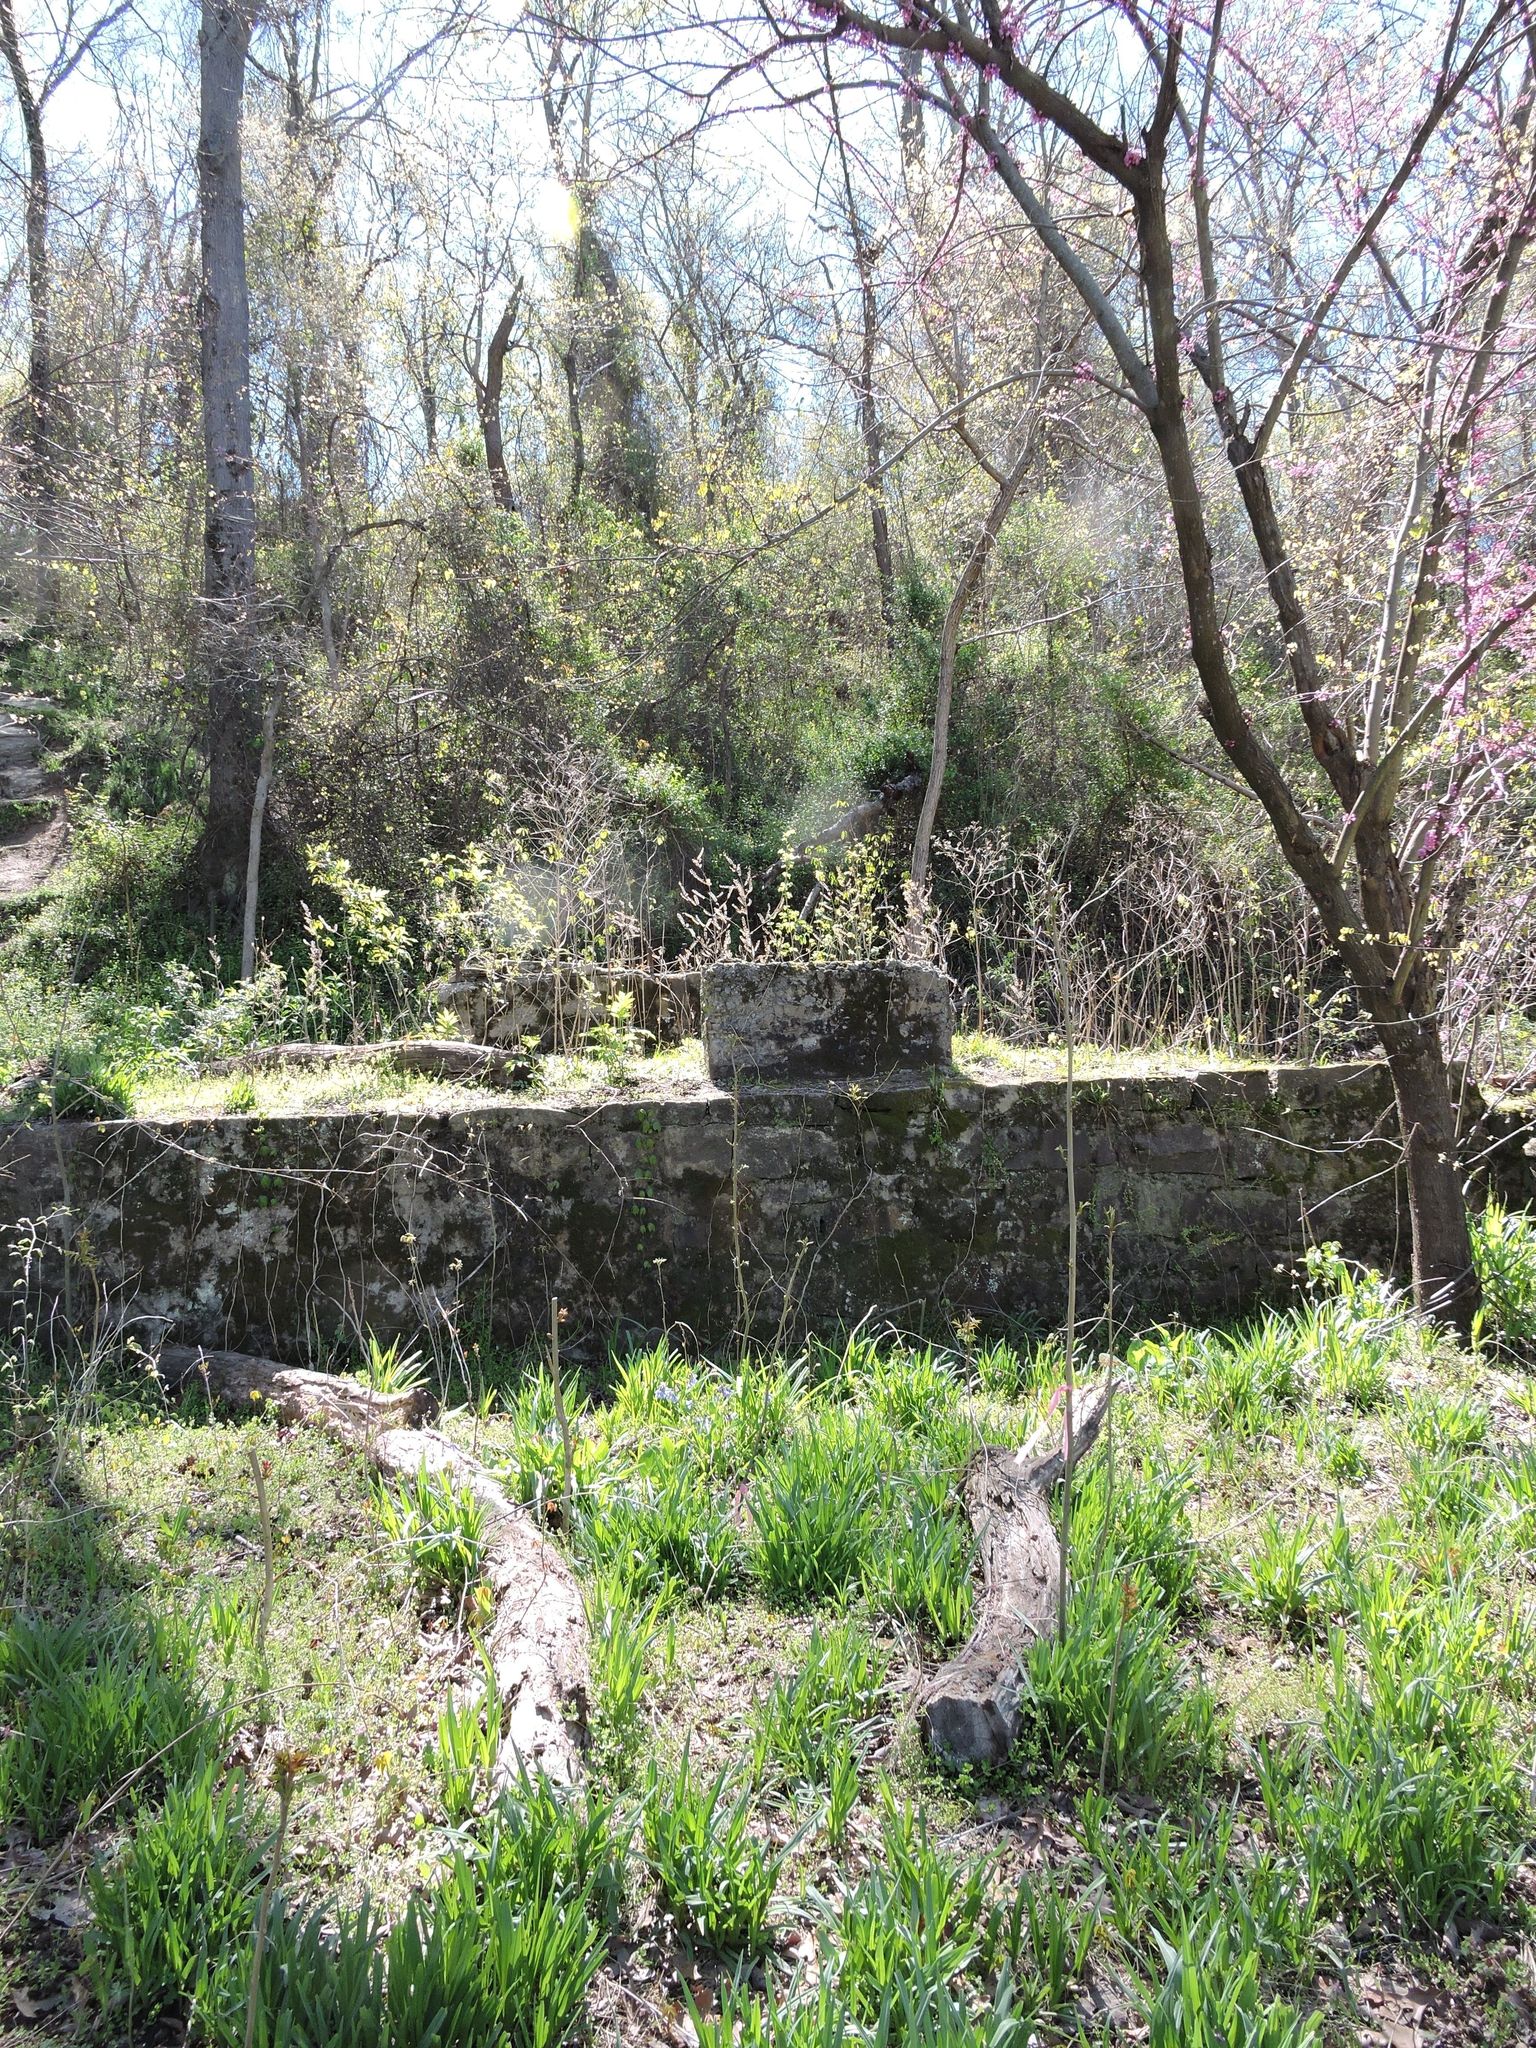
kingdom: Plantae
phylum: Tracheophyta
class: Magnoliopsida
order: Boraginales
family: Boraginaceae
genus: Mertensia
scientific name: Mertensia virginica
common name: Virginia bluebells
